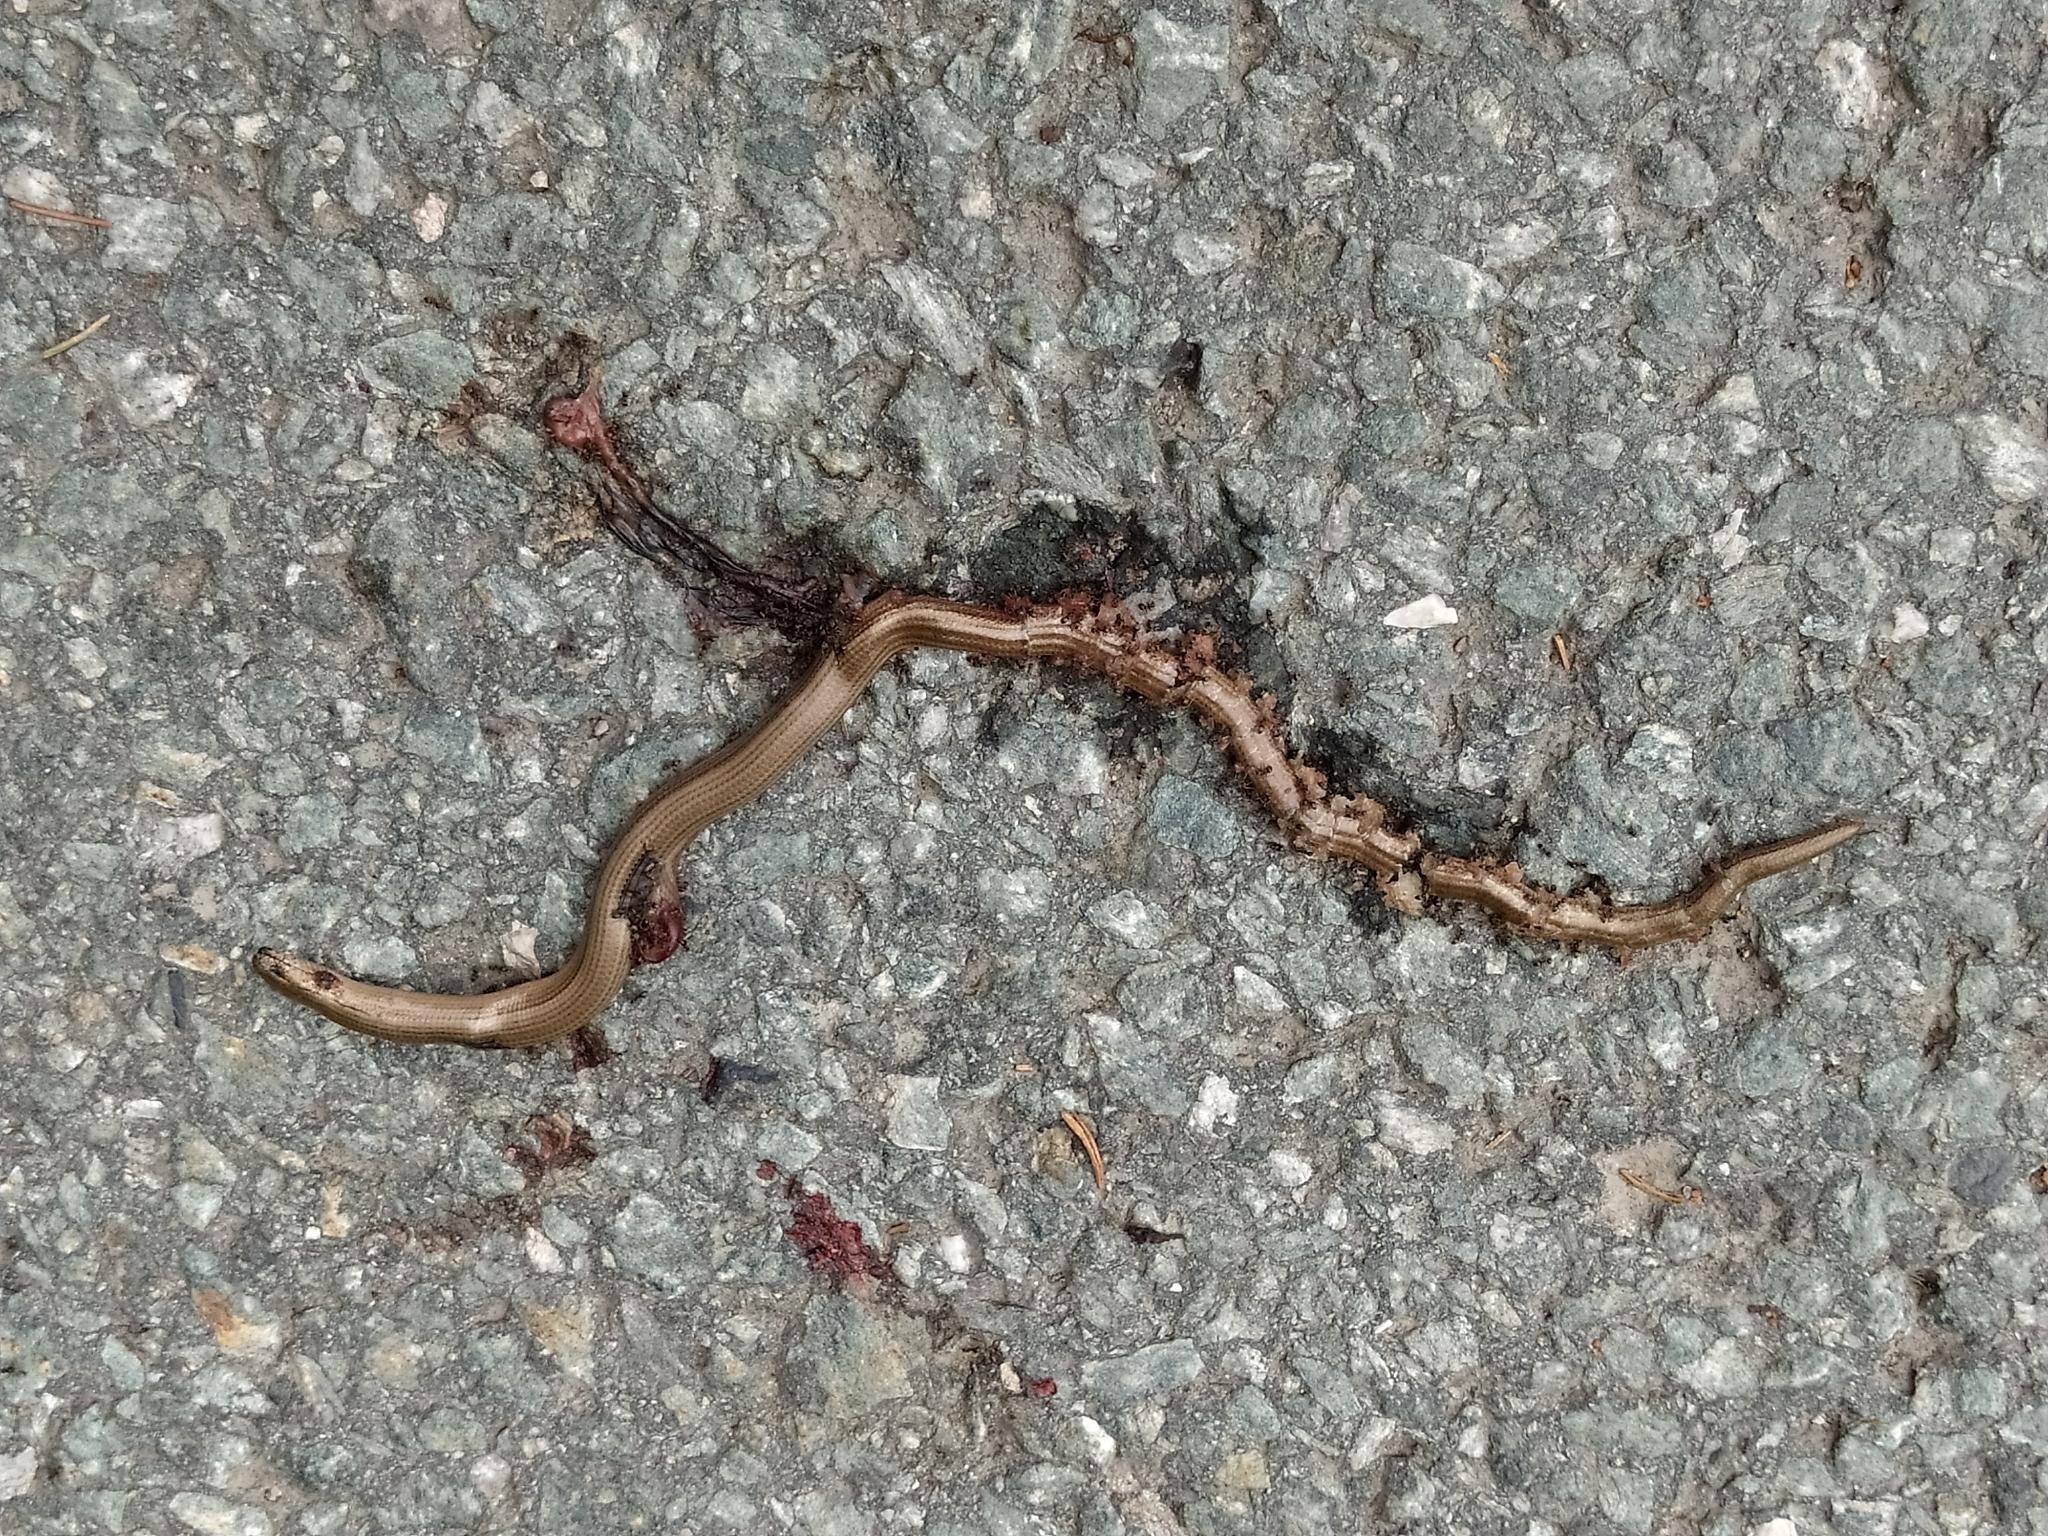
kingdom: Animalia
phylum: Chordata
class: Squamata
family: Anguidae
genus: Anguis
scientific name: Anguis fragilis
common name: Slow worm
